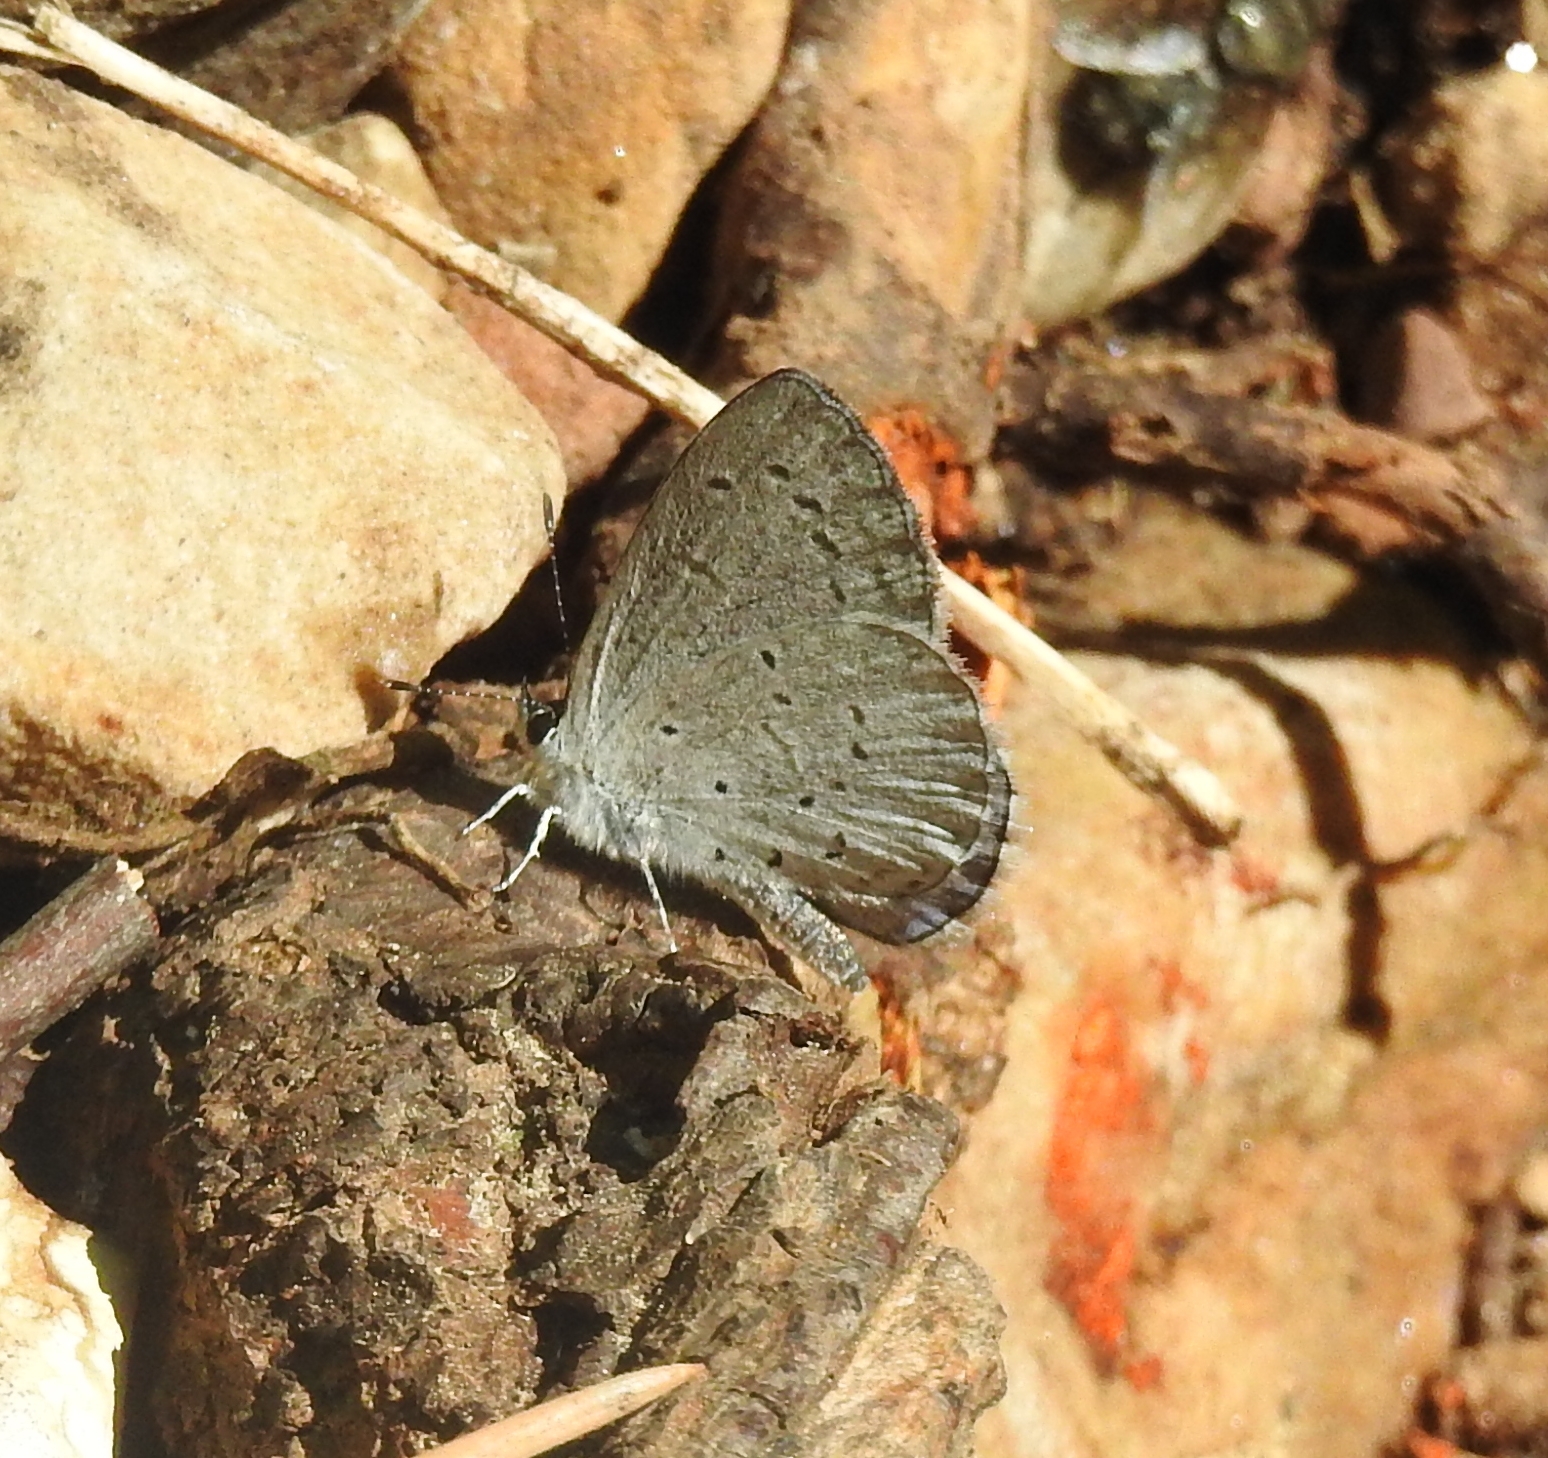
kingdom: Animalia
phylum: Arthropoda
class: Insecta
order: Lepidoptera
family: Lycaenidae
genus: Celastrina
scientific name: Celastrina ladon
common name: Spring azure
